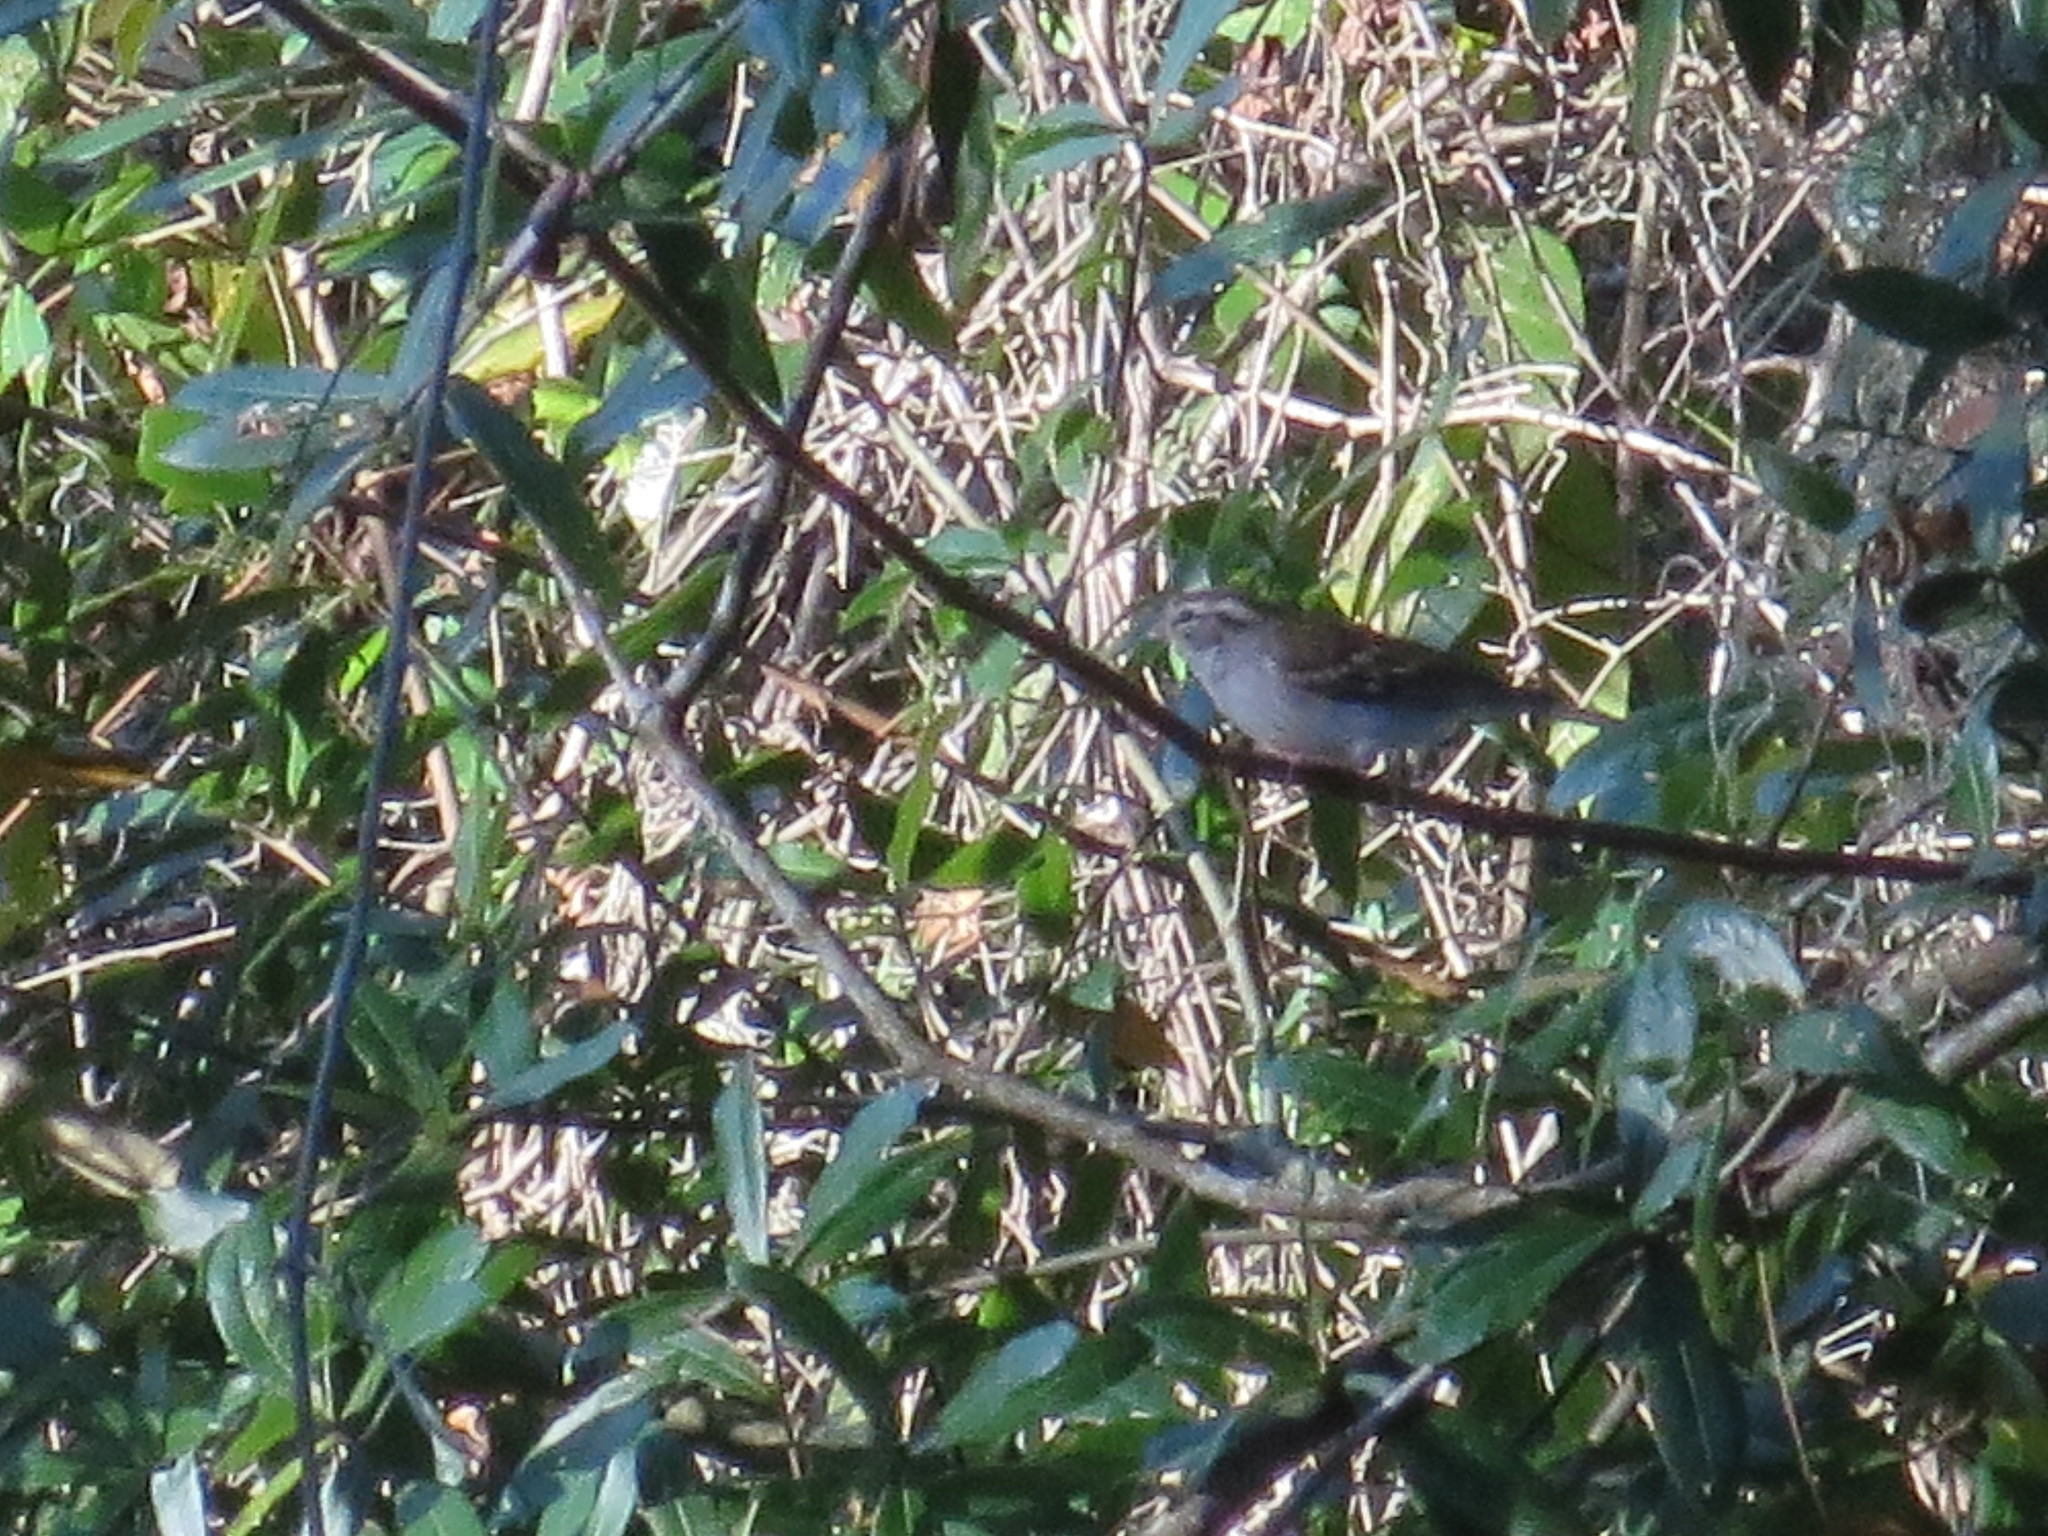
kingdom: Animalia
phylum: Chordata
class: Aves
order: Passeriformes
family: Passerellidae
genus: Spizella
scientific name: Spizella passerina
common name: Chipping sparrow
